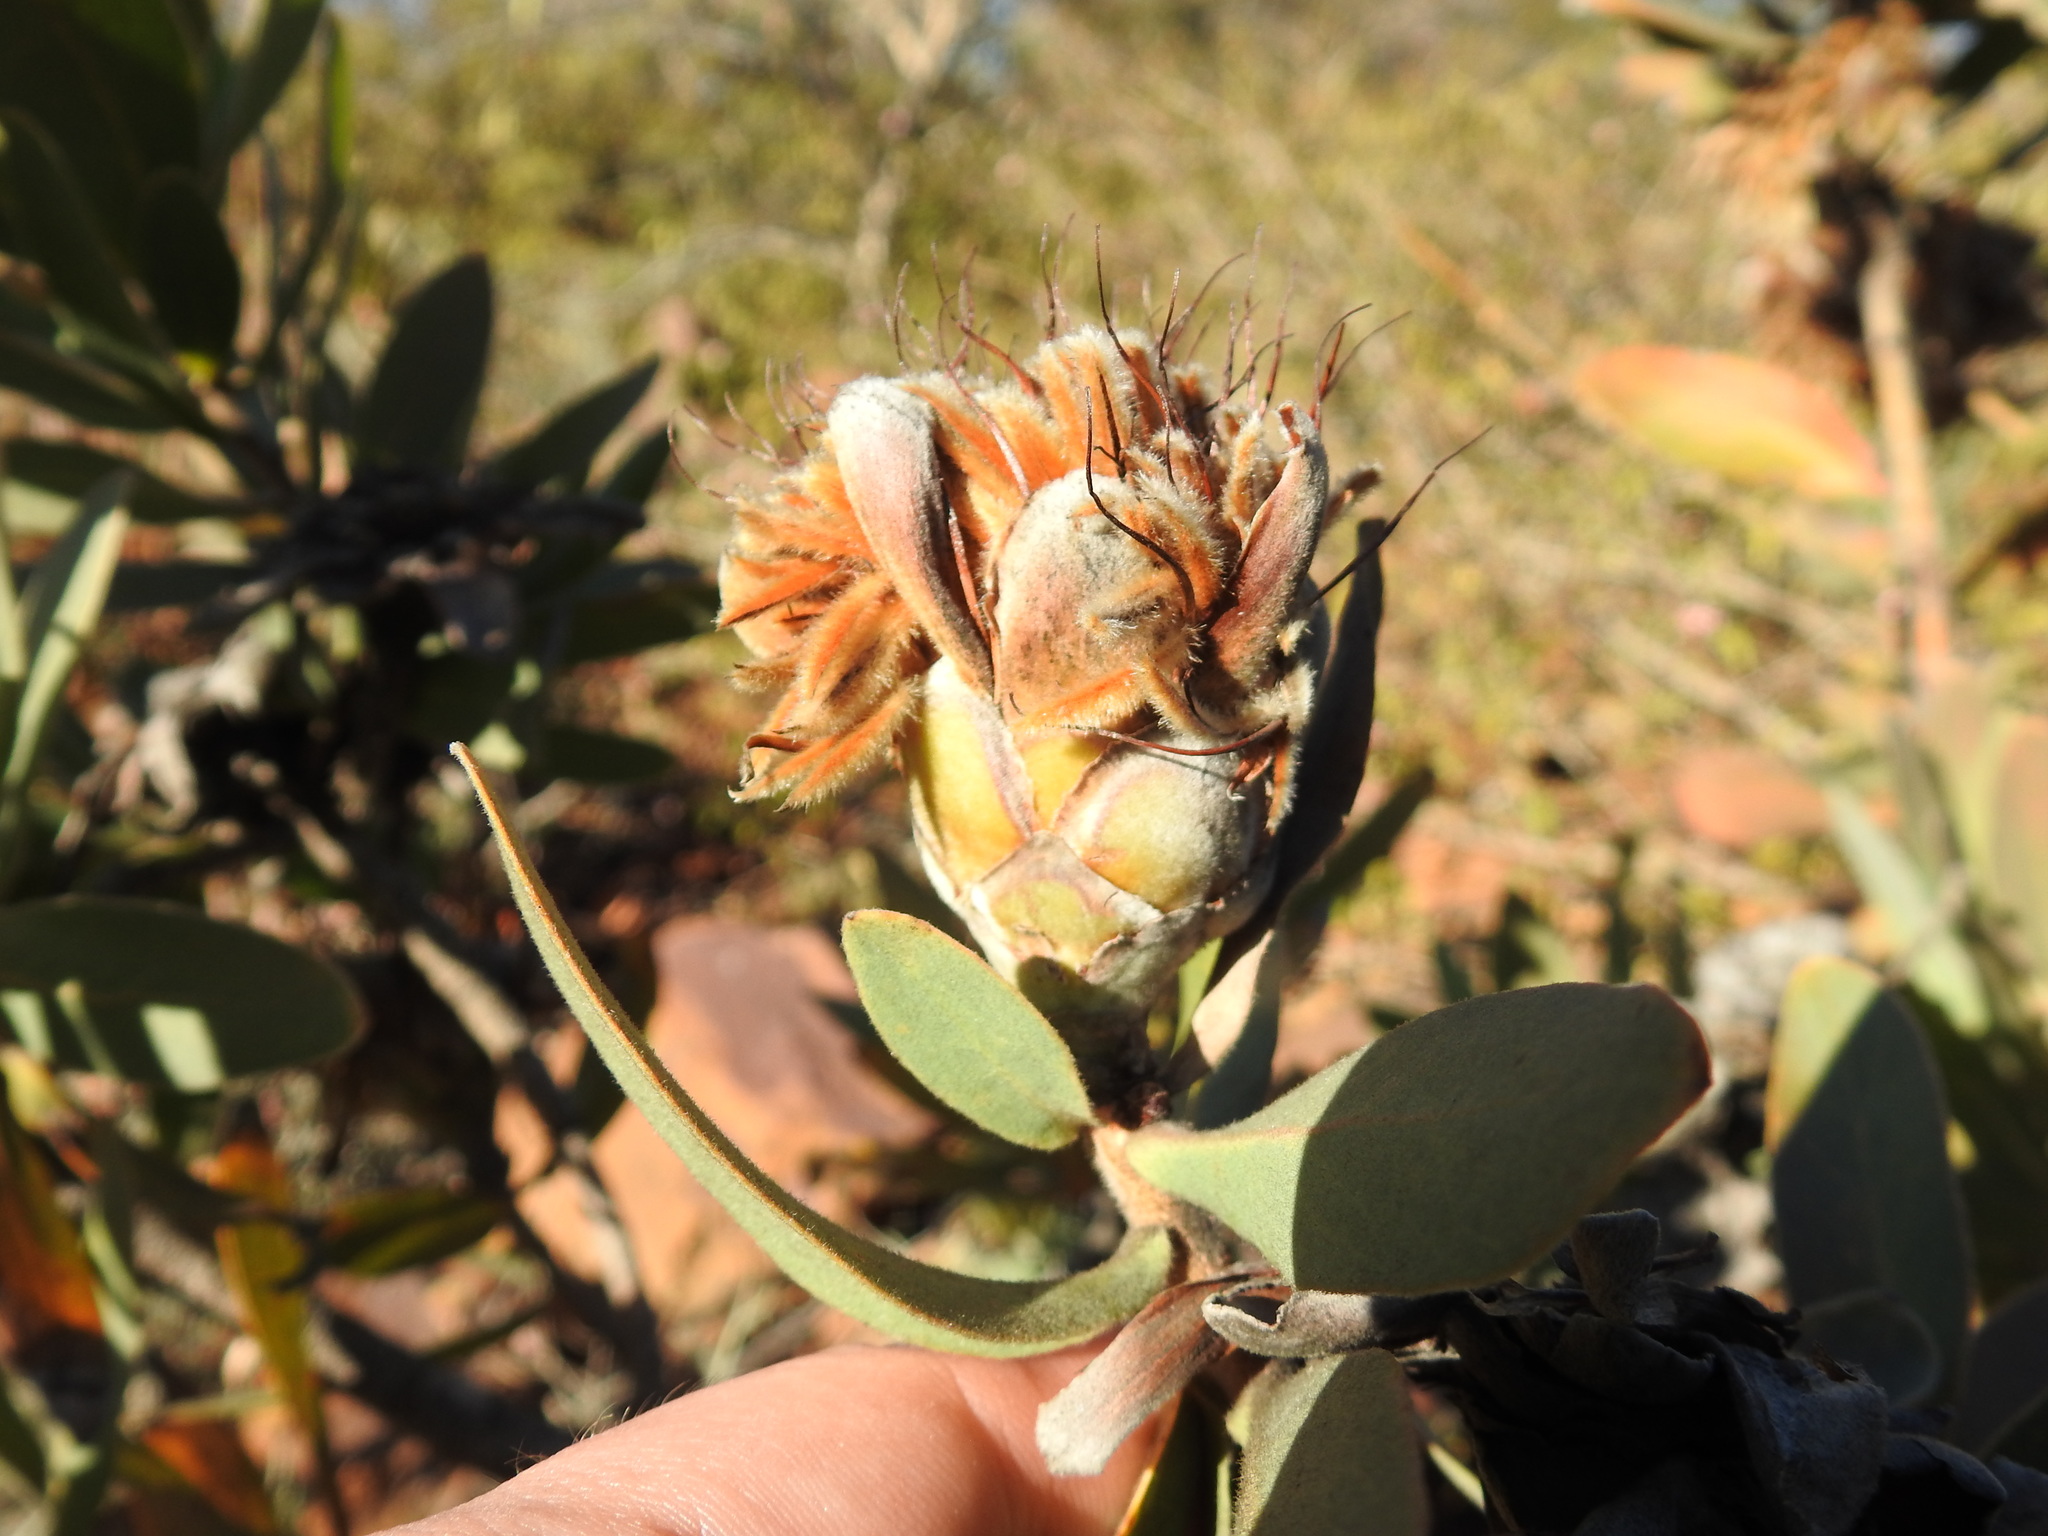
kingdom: Plantae
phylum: Tracheophyta
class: Magnoliopsida
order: Proteales
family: Proteaceae
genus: Protea
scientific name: Protea welwitschii
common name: Cluster-head protea
